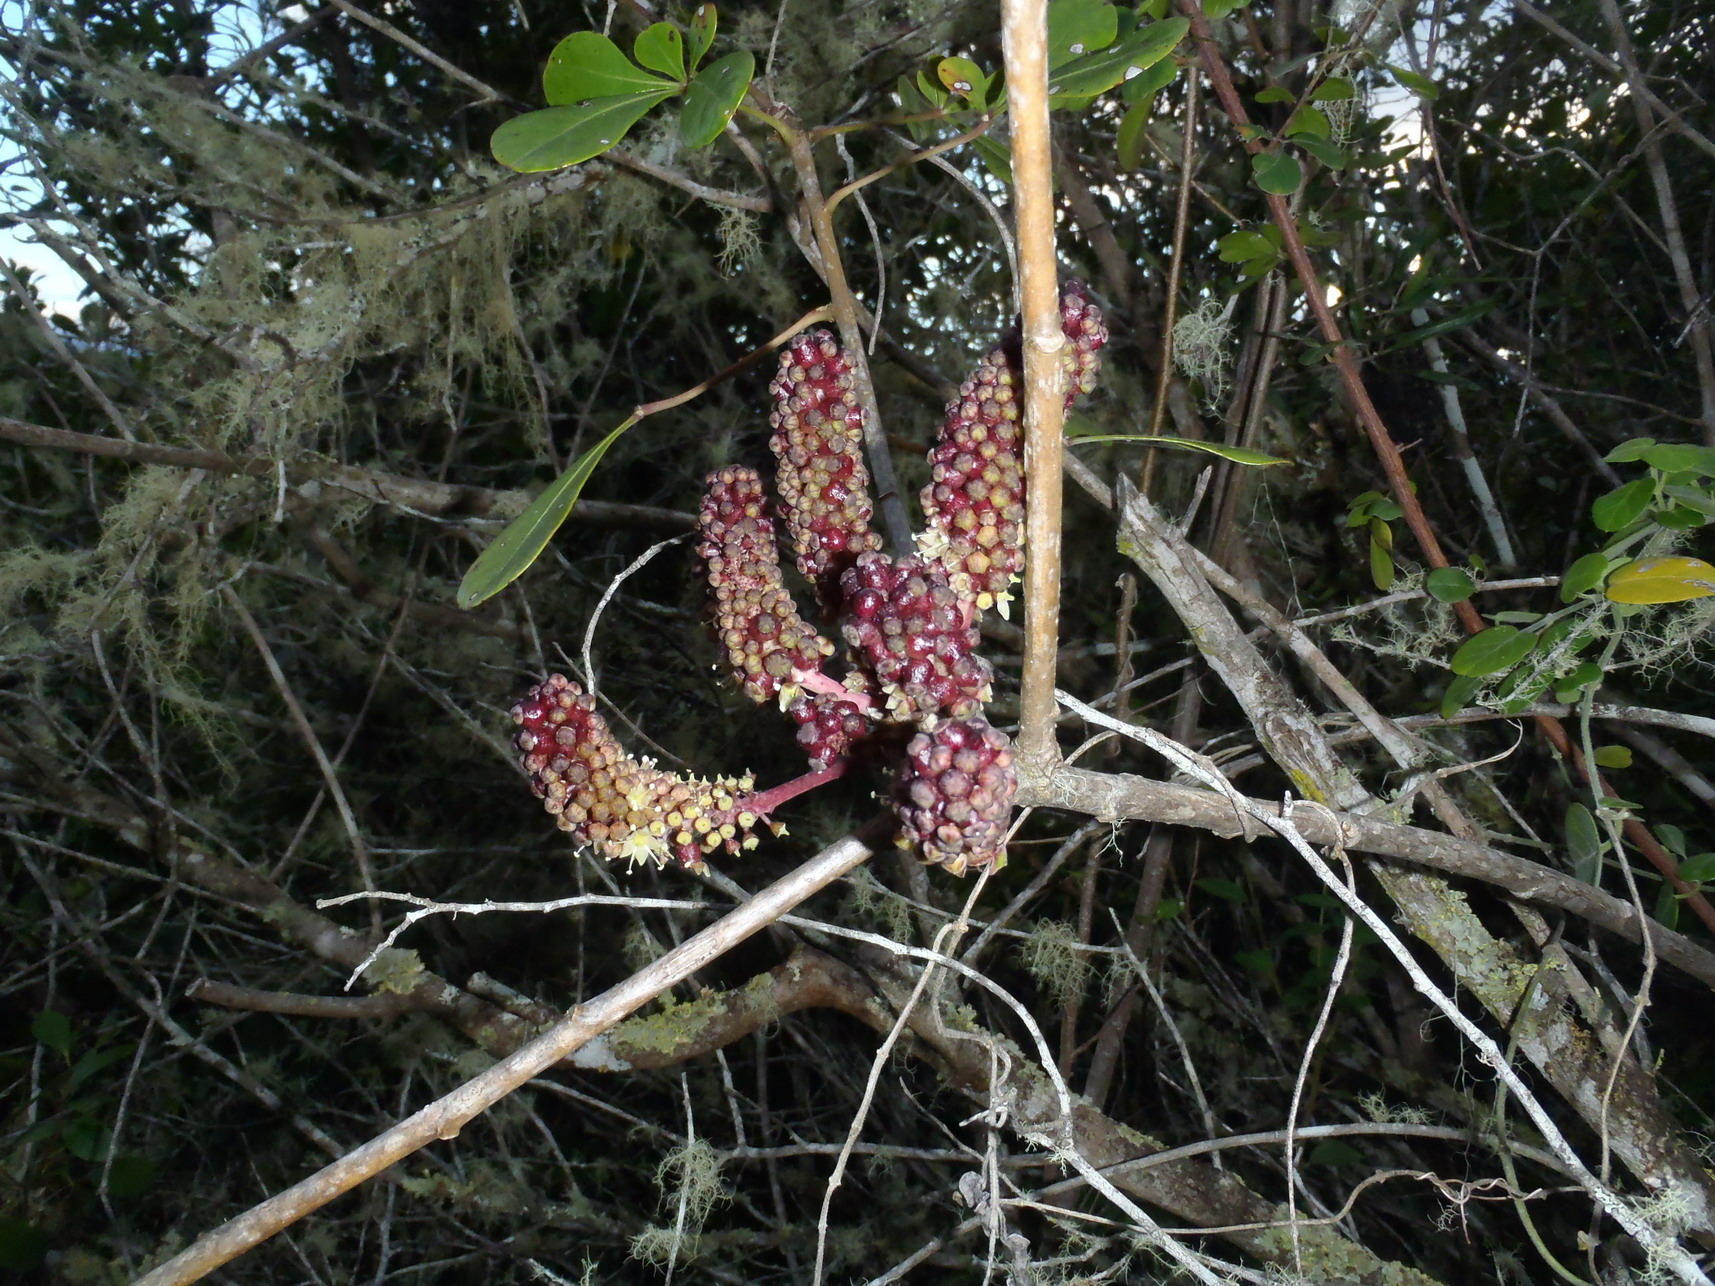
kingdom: Plantae
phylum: Tracheophyta
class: Magnoliopsida
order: Apiales
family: Araliaceae
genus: Cussonia
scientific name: Cussonia thyrsiflora
